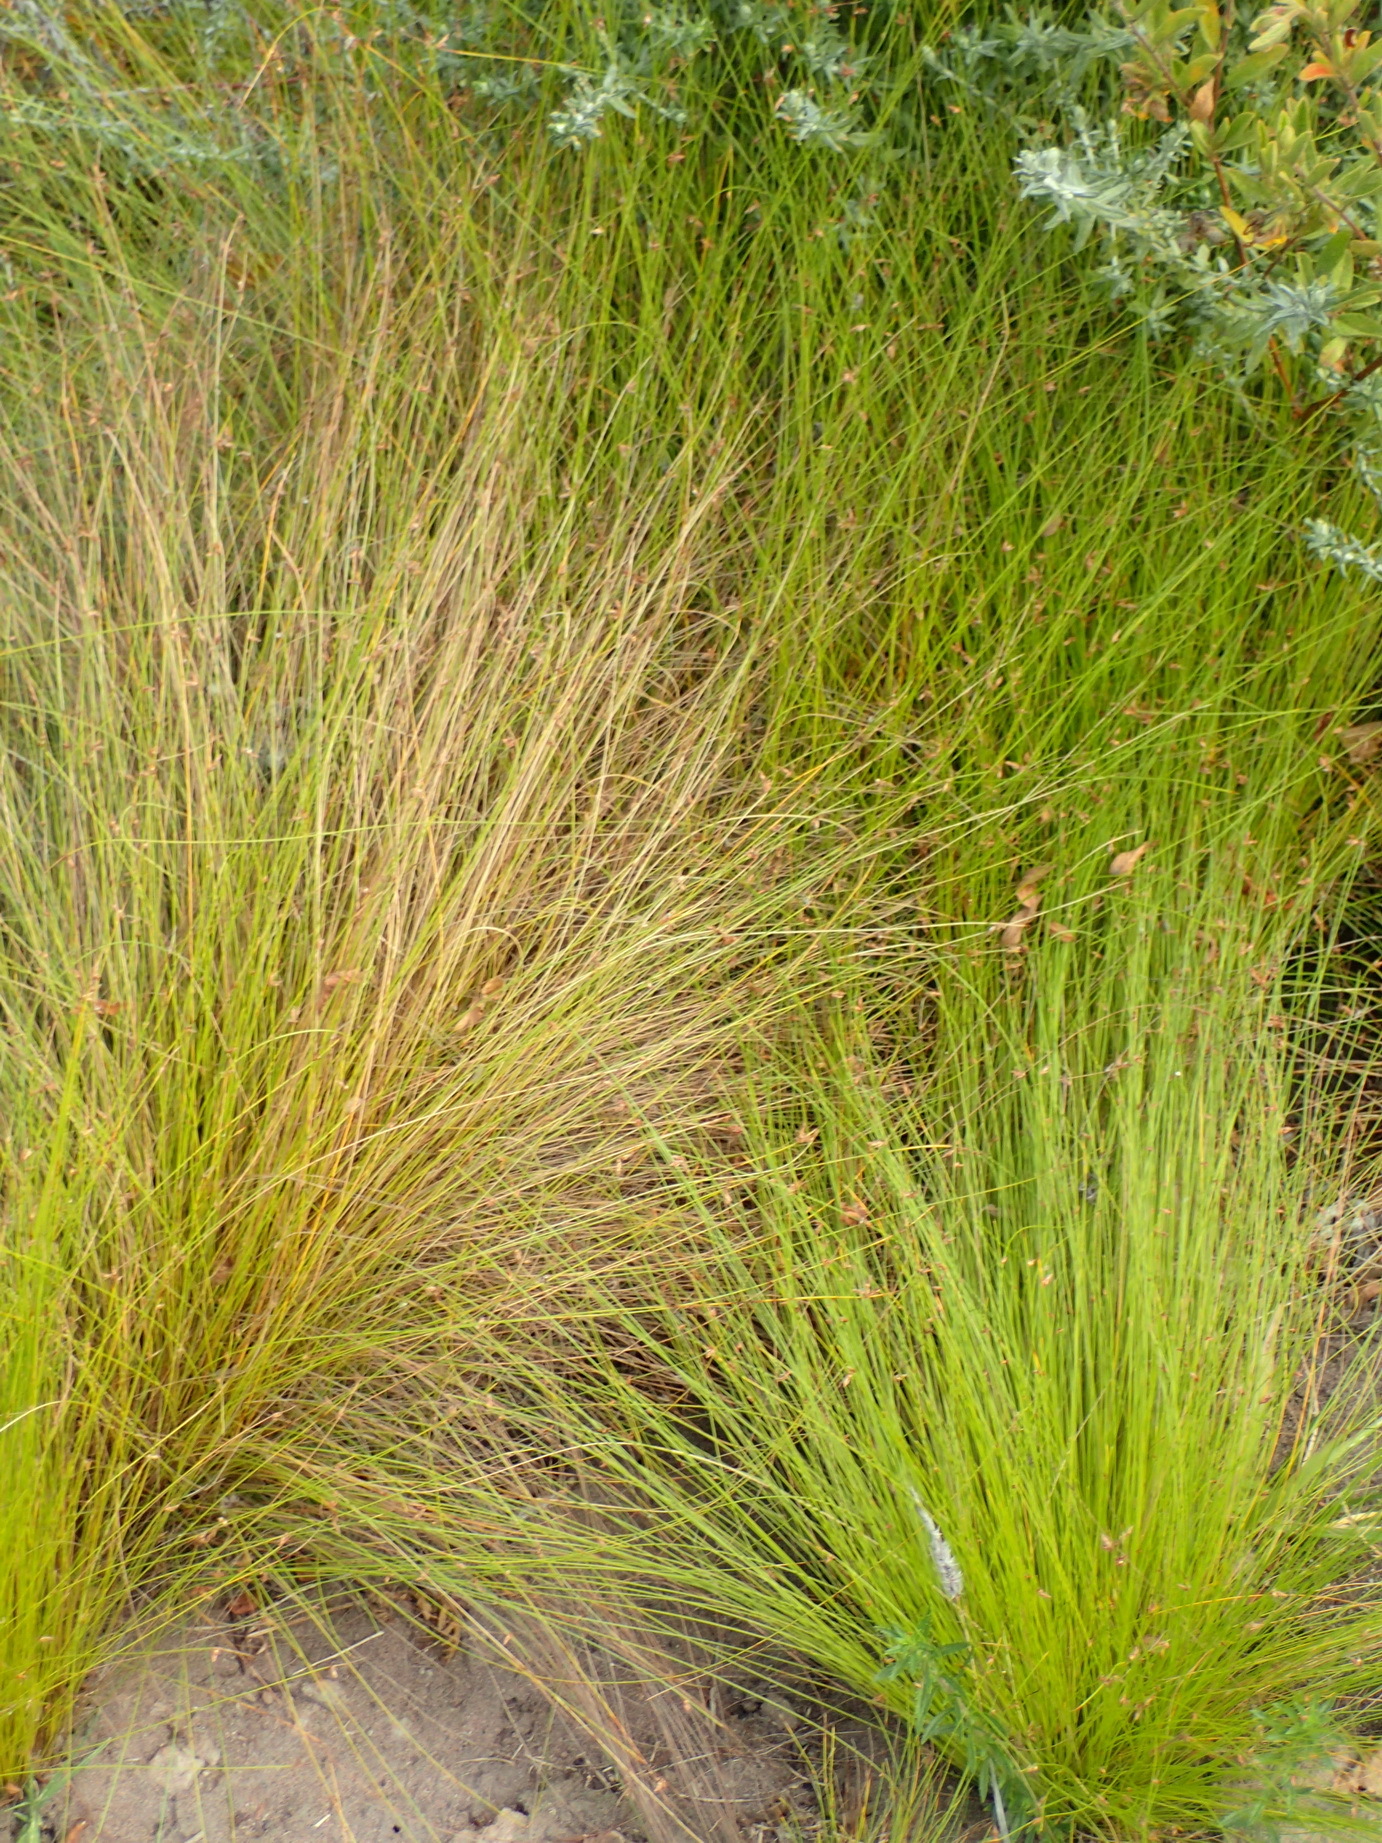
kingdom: Plantae
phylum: Tracheophyta
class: Liliopsida
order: Poales
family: Cyperaceae
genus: Ficinia
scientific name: Ficinia acuminata
